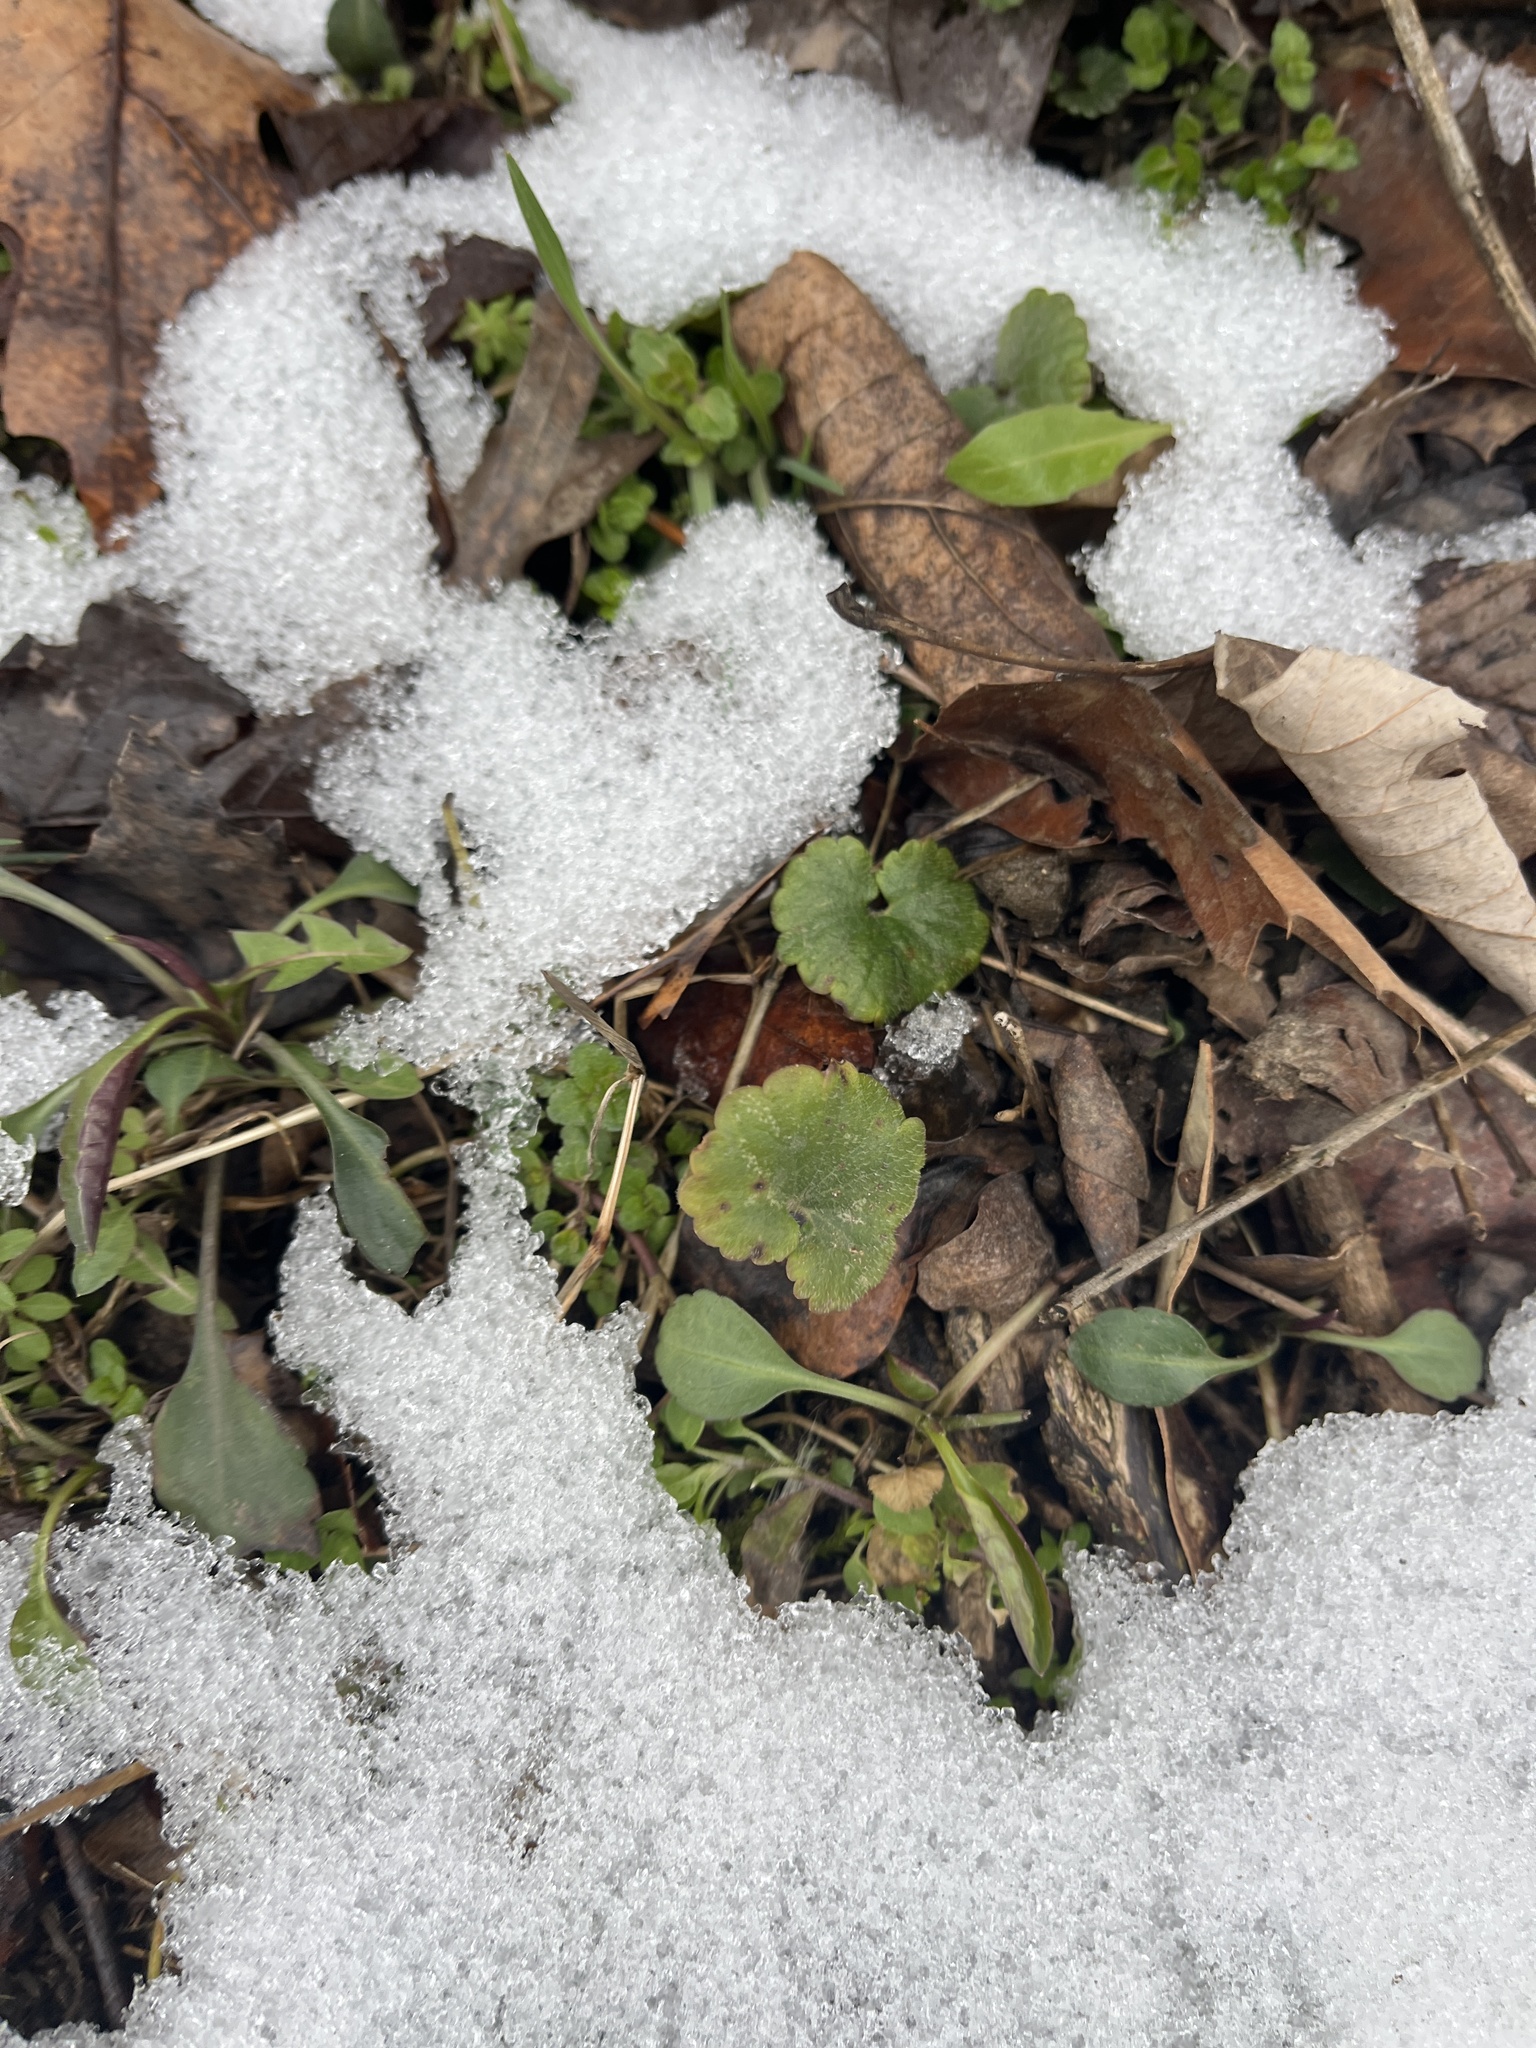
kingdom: Plantae
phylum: Tracheophyta
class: Magnoliopsida
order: Lamiales
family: Lamiaceae
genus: Glechoma
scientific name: Glechoma hederacea
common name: Ground ivy
